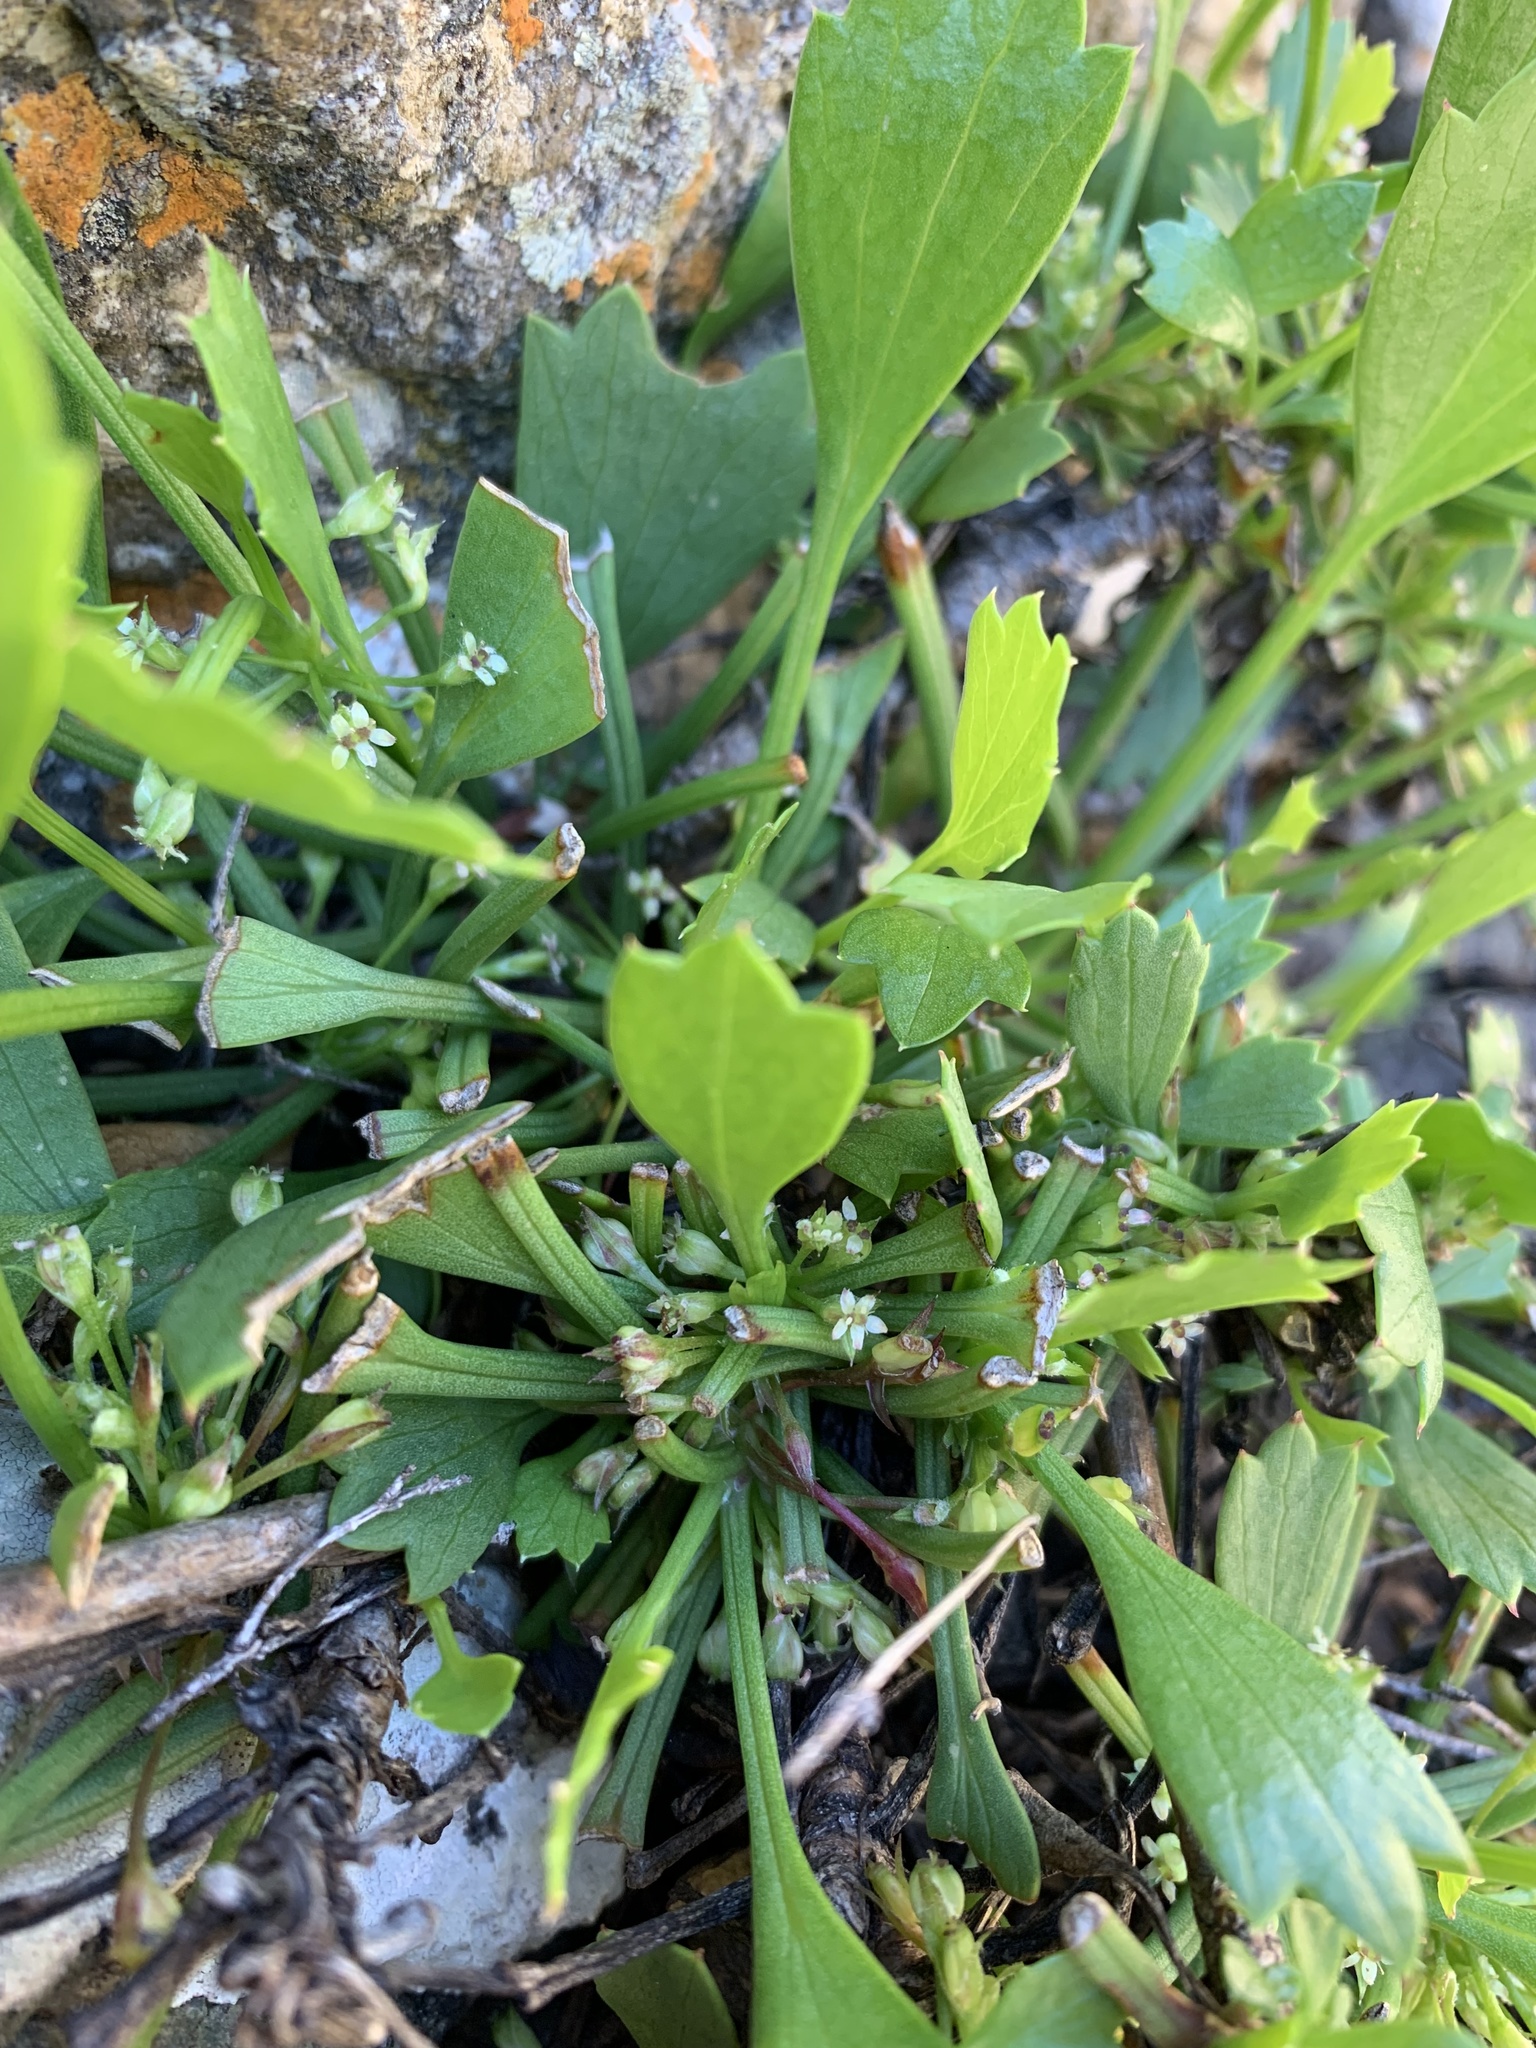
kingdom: Plantae
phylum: Tracheophyta
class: Magnoliopsida
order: Apiales
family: Apiaceae
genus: Centella
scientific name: Centella triloba
